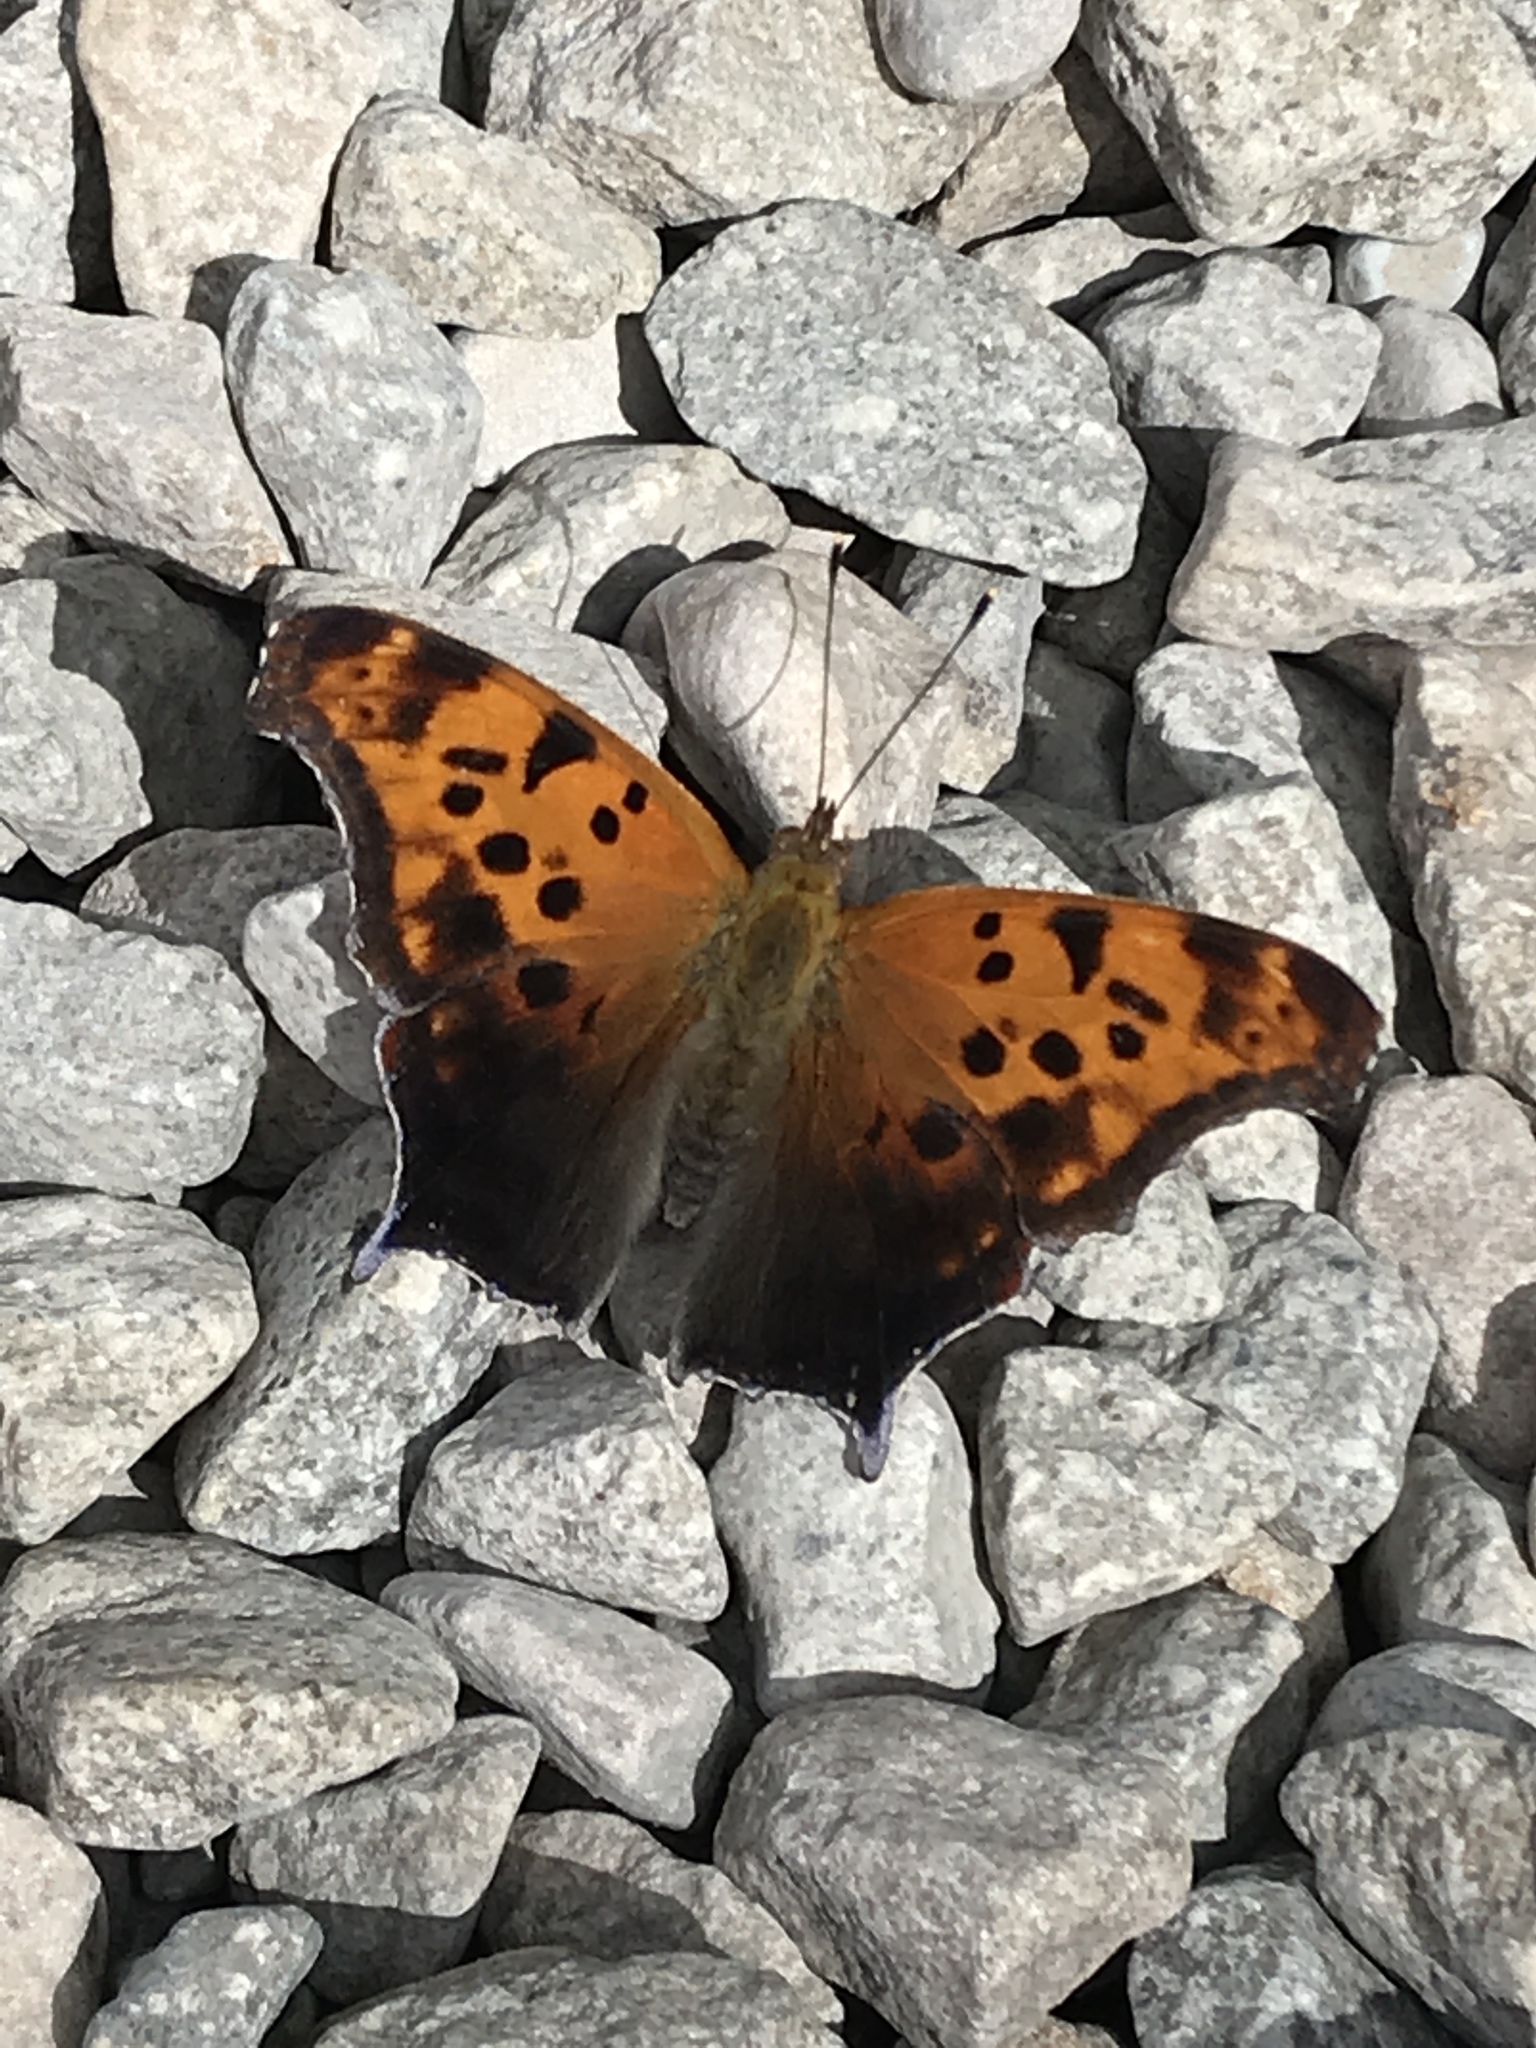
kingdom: Animalia
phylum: Arthropoda
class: Insecta
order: Lepidoptera
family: Nymphalidae
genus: Polygonia
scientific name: Polygonia interrogationis
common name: Question mark
